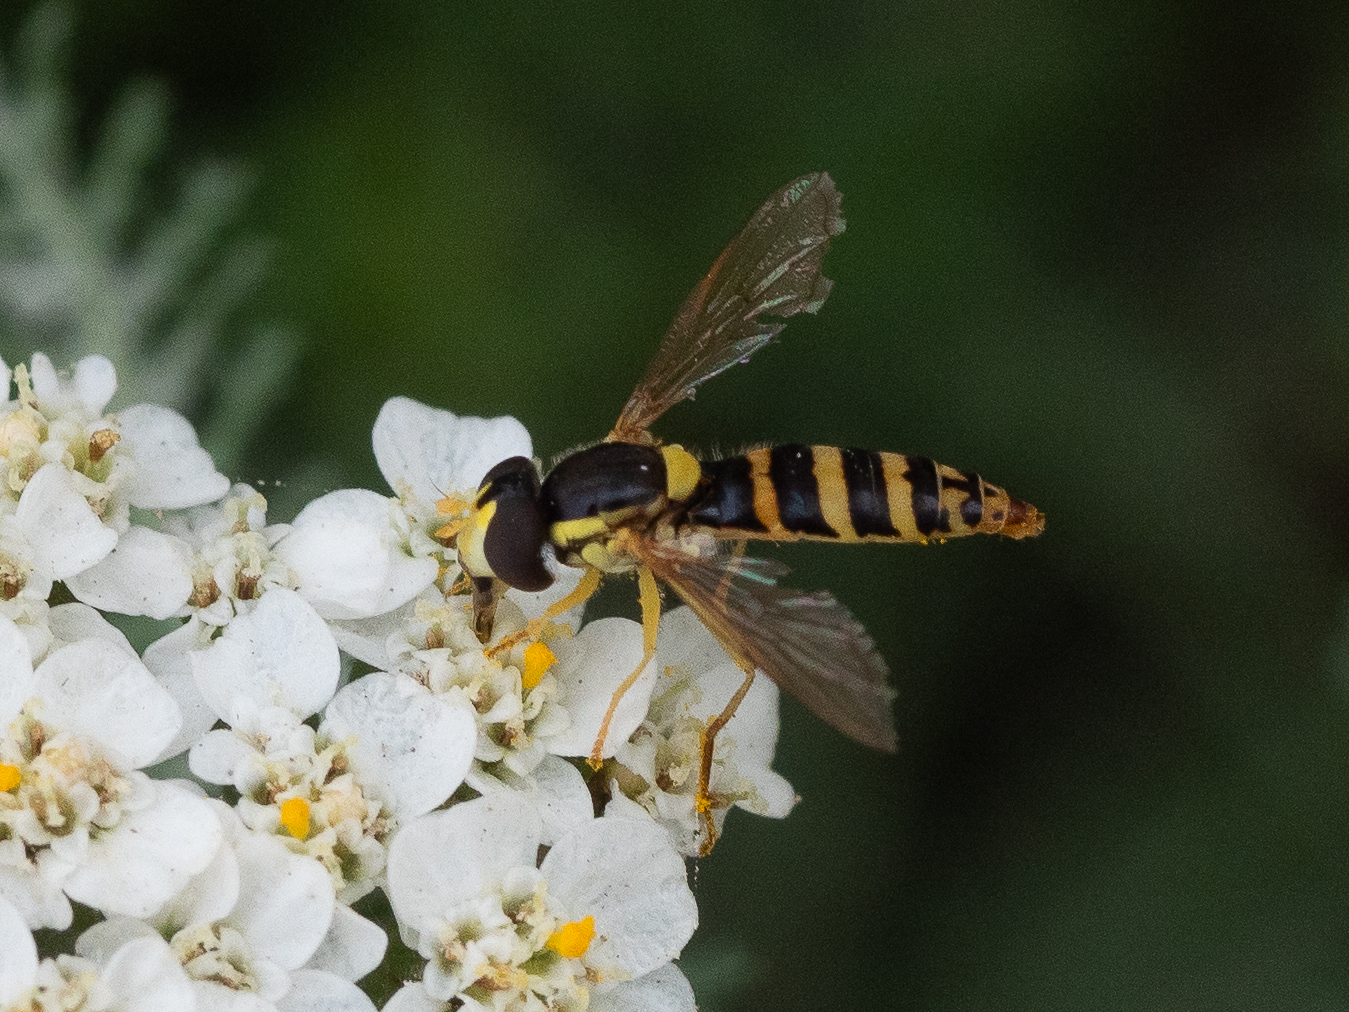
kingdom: Animalia
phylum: Arthropoda
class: Insecta
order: Diptera
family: Syrphidae
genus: Sphaerophoria
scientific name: Sphaerophoria
